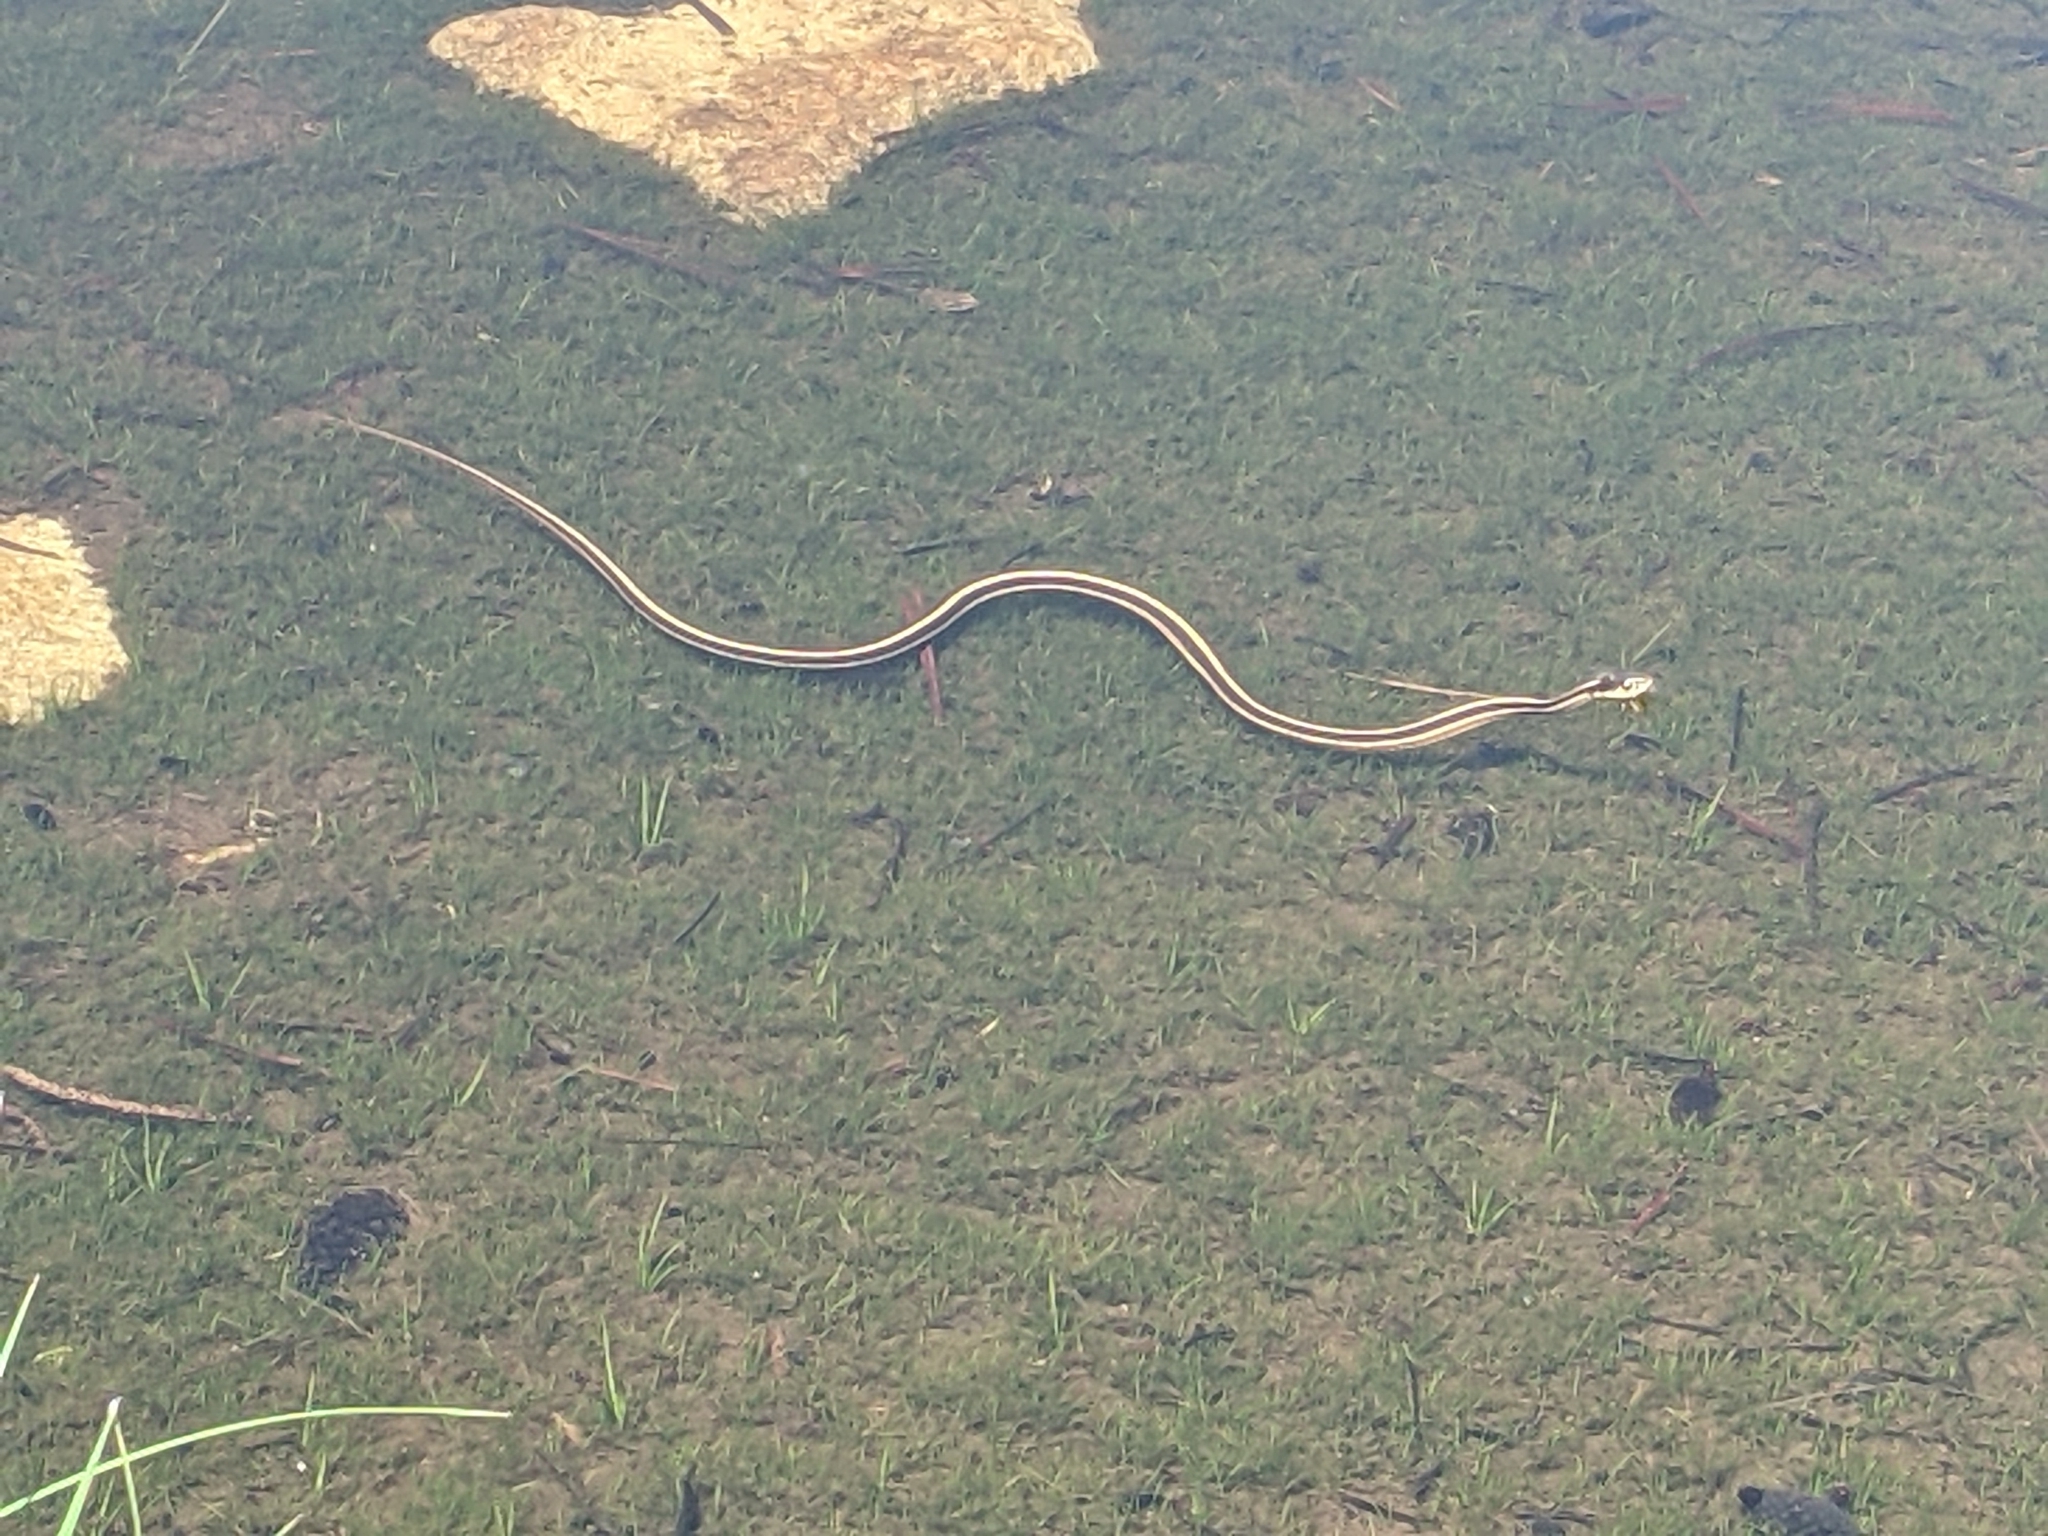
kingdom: Animalia
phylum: Chordata
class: Squamata
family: Colubridae
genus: Thamnophis
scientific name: Thamnophis elegans
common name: Western terrestrial garter snake
